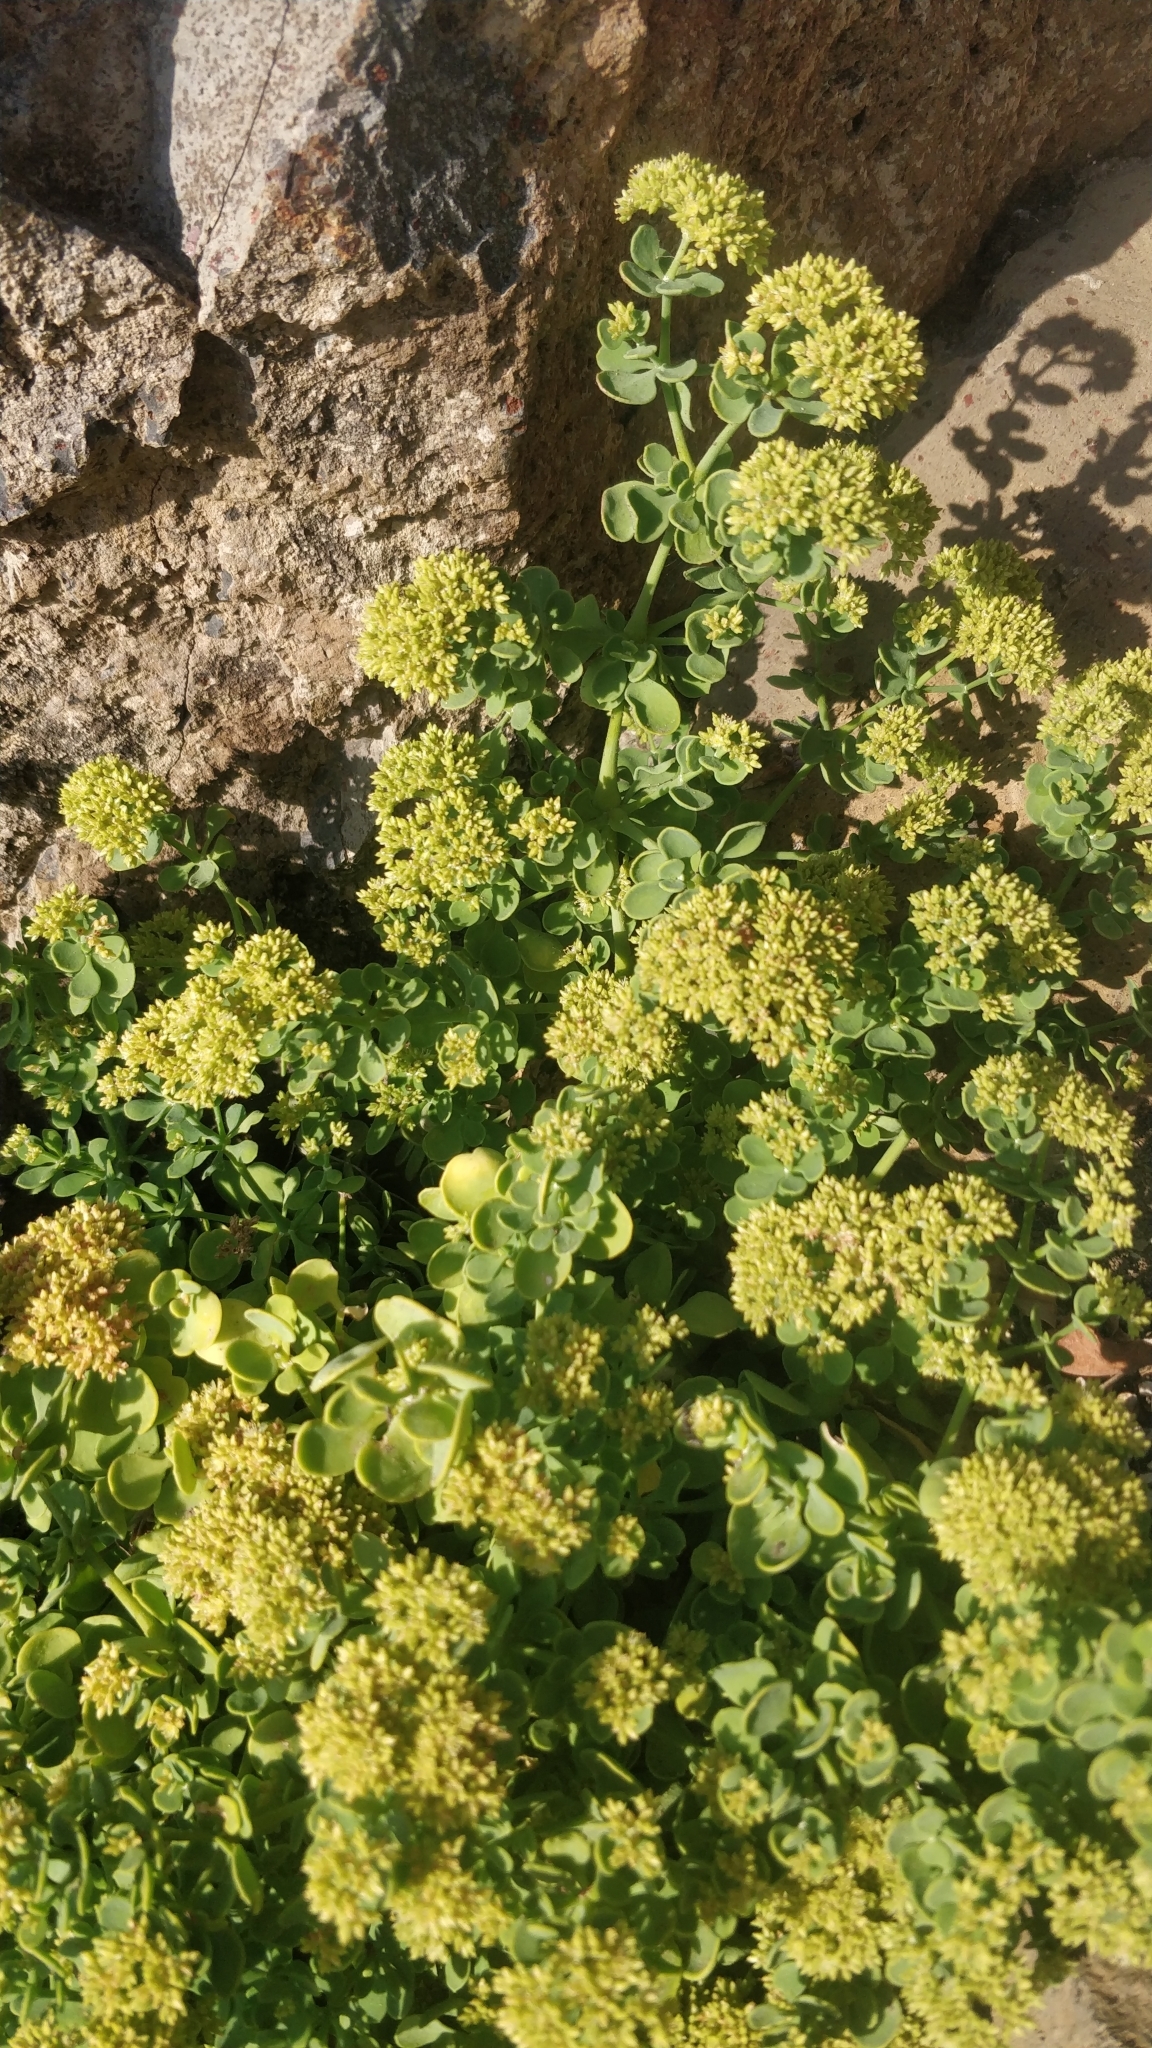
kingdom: Plantae
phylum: Tracheophyta
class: Magnoliopsida
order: Caryophyllales
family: Caryophyllaceae
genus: Polycarpaea
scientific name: Polycarpaea carnosa
